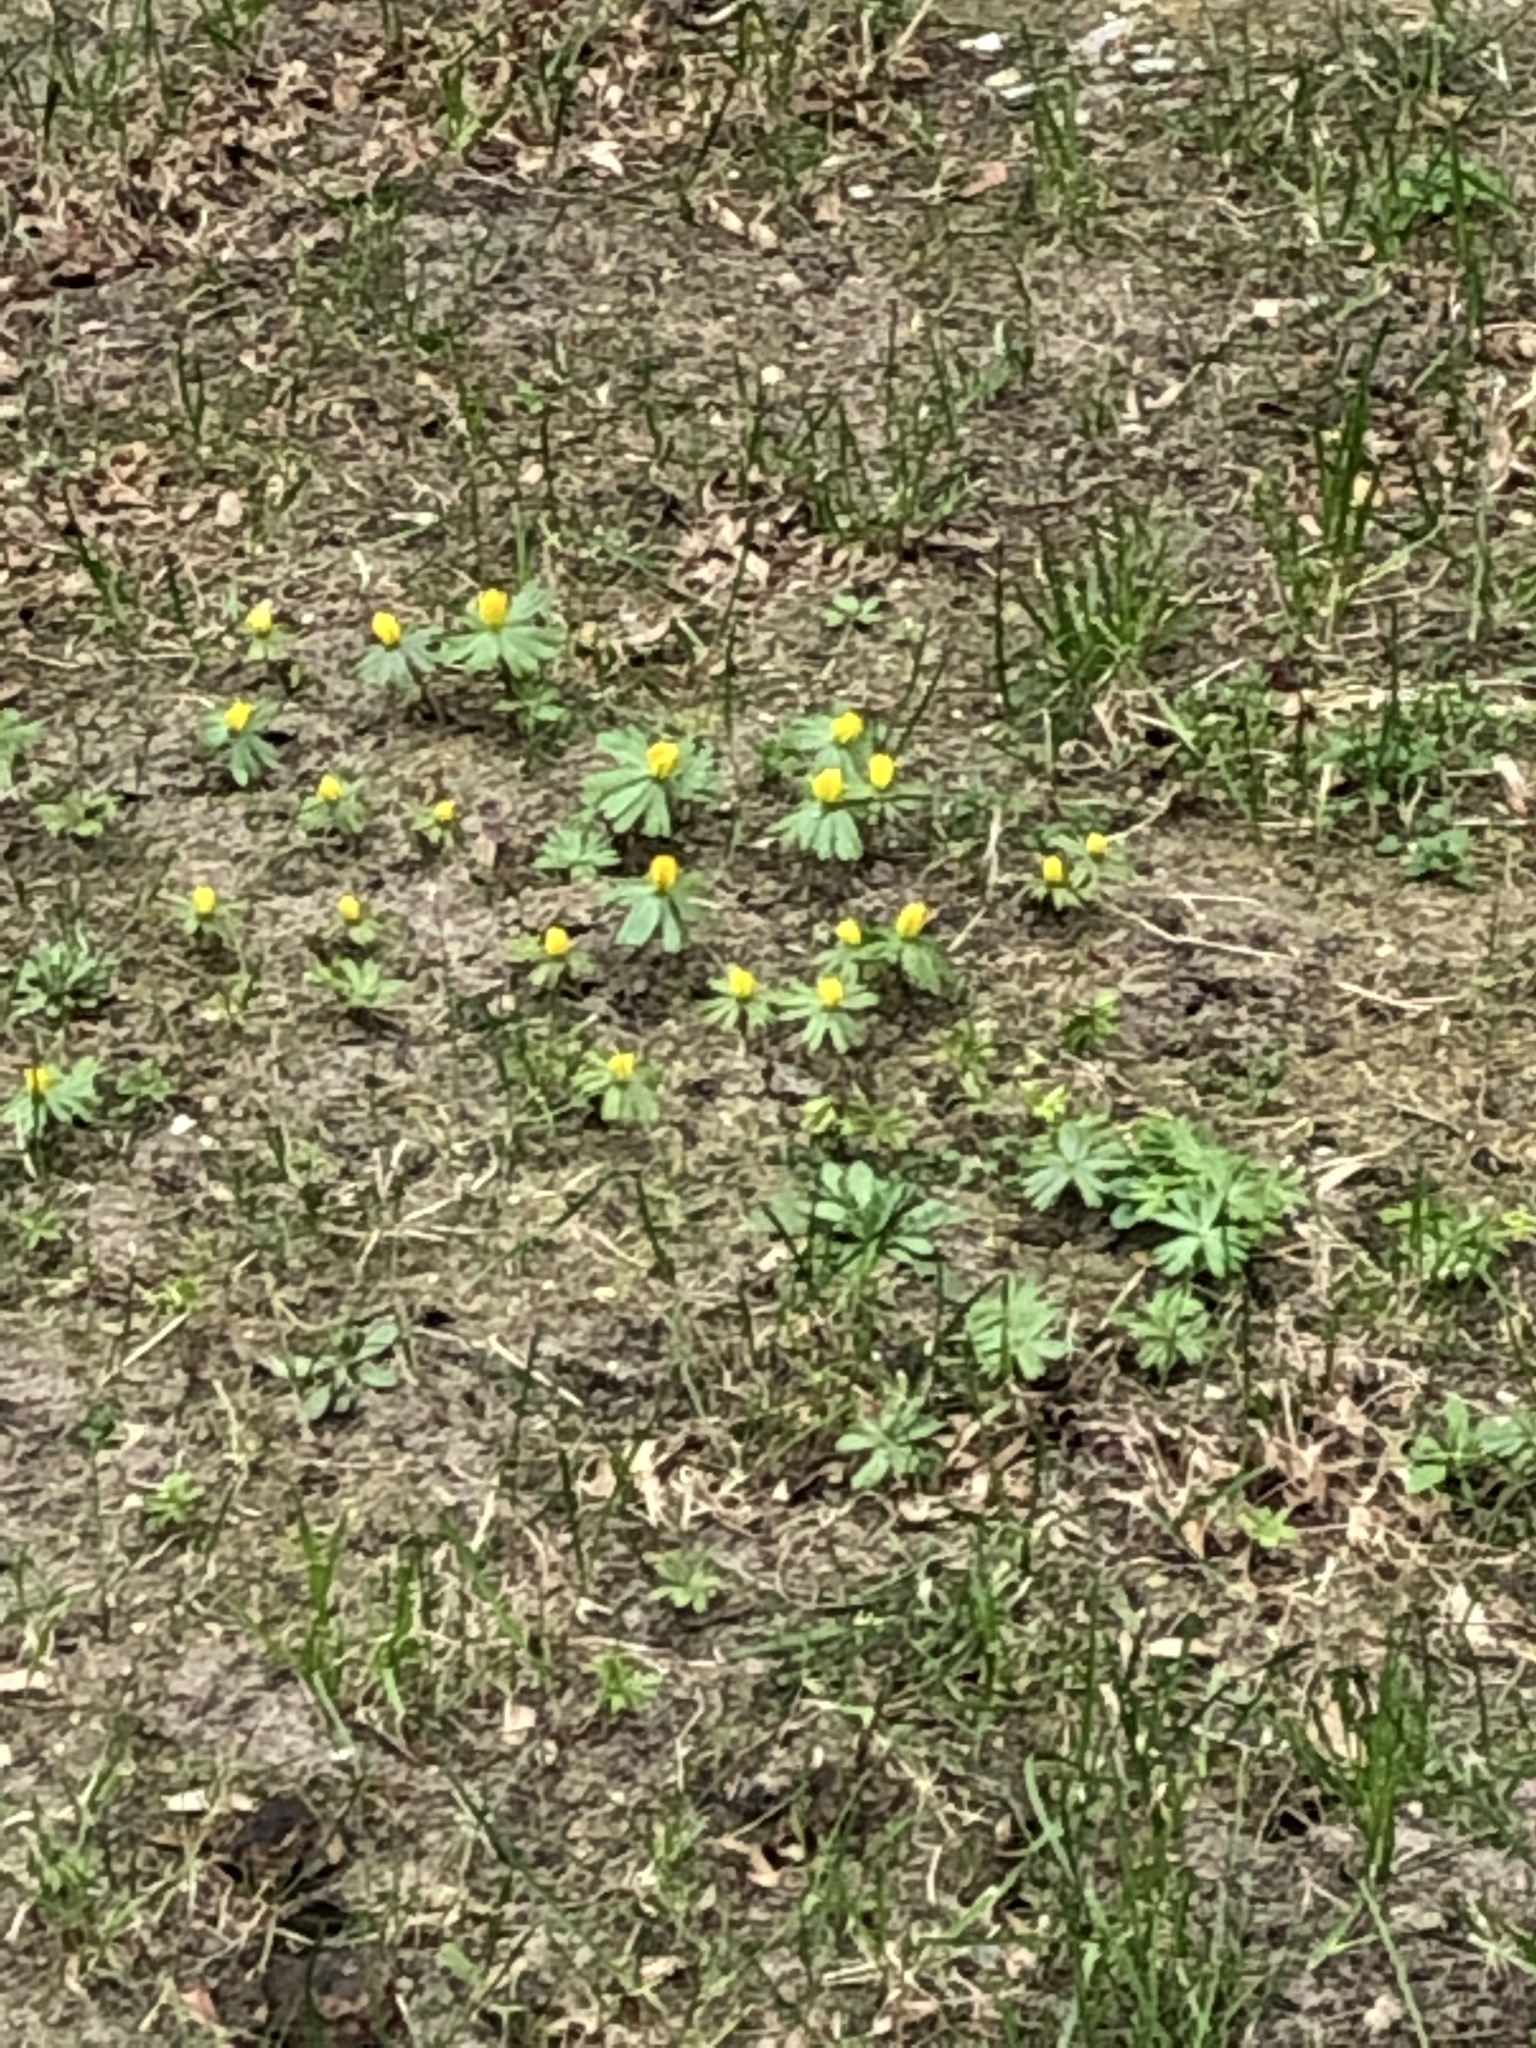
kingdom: Plantae
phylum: Tracheophyta
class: Magnoliopsida
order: Ranunculales
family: Ranunculaceae
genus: Eranthis
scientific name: Eranthis hyemalis
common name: Winter aconite
